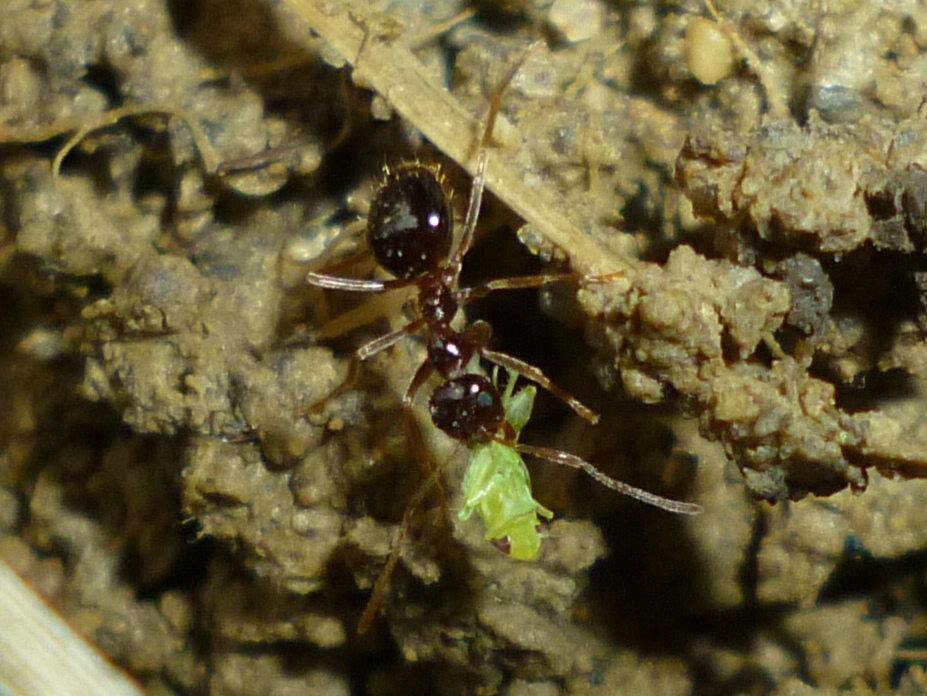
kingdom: Animalia
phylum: Arthropoda
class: Insecta
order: Hymenoptera
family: Formicidae
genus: Prenolepis
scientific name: Prenolepis imparis
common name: Small honey ant
